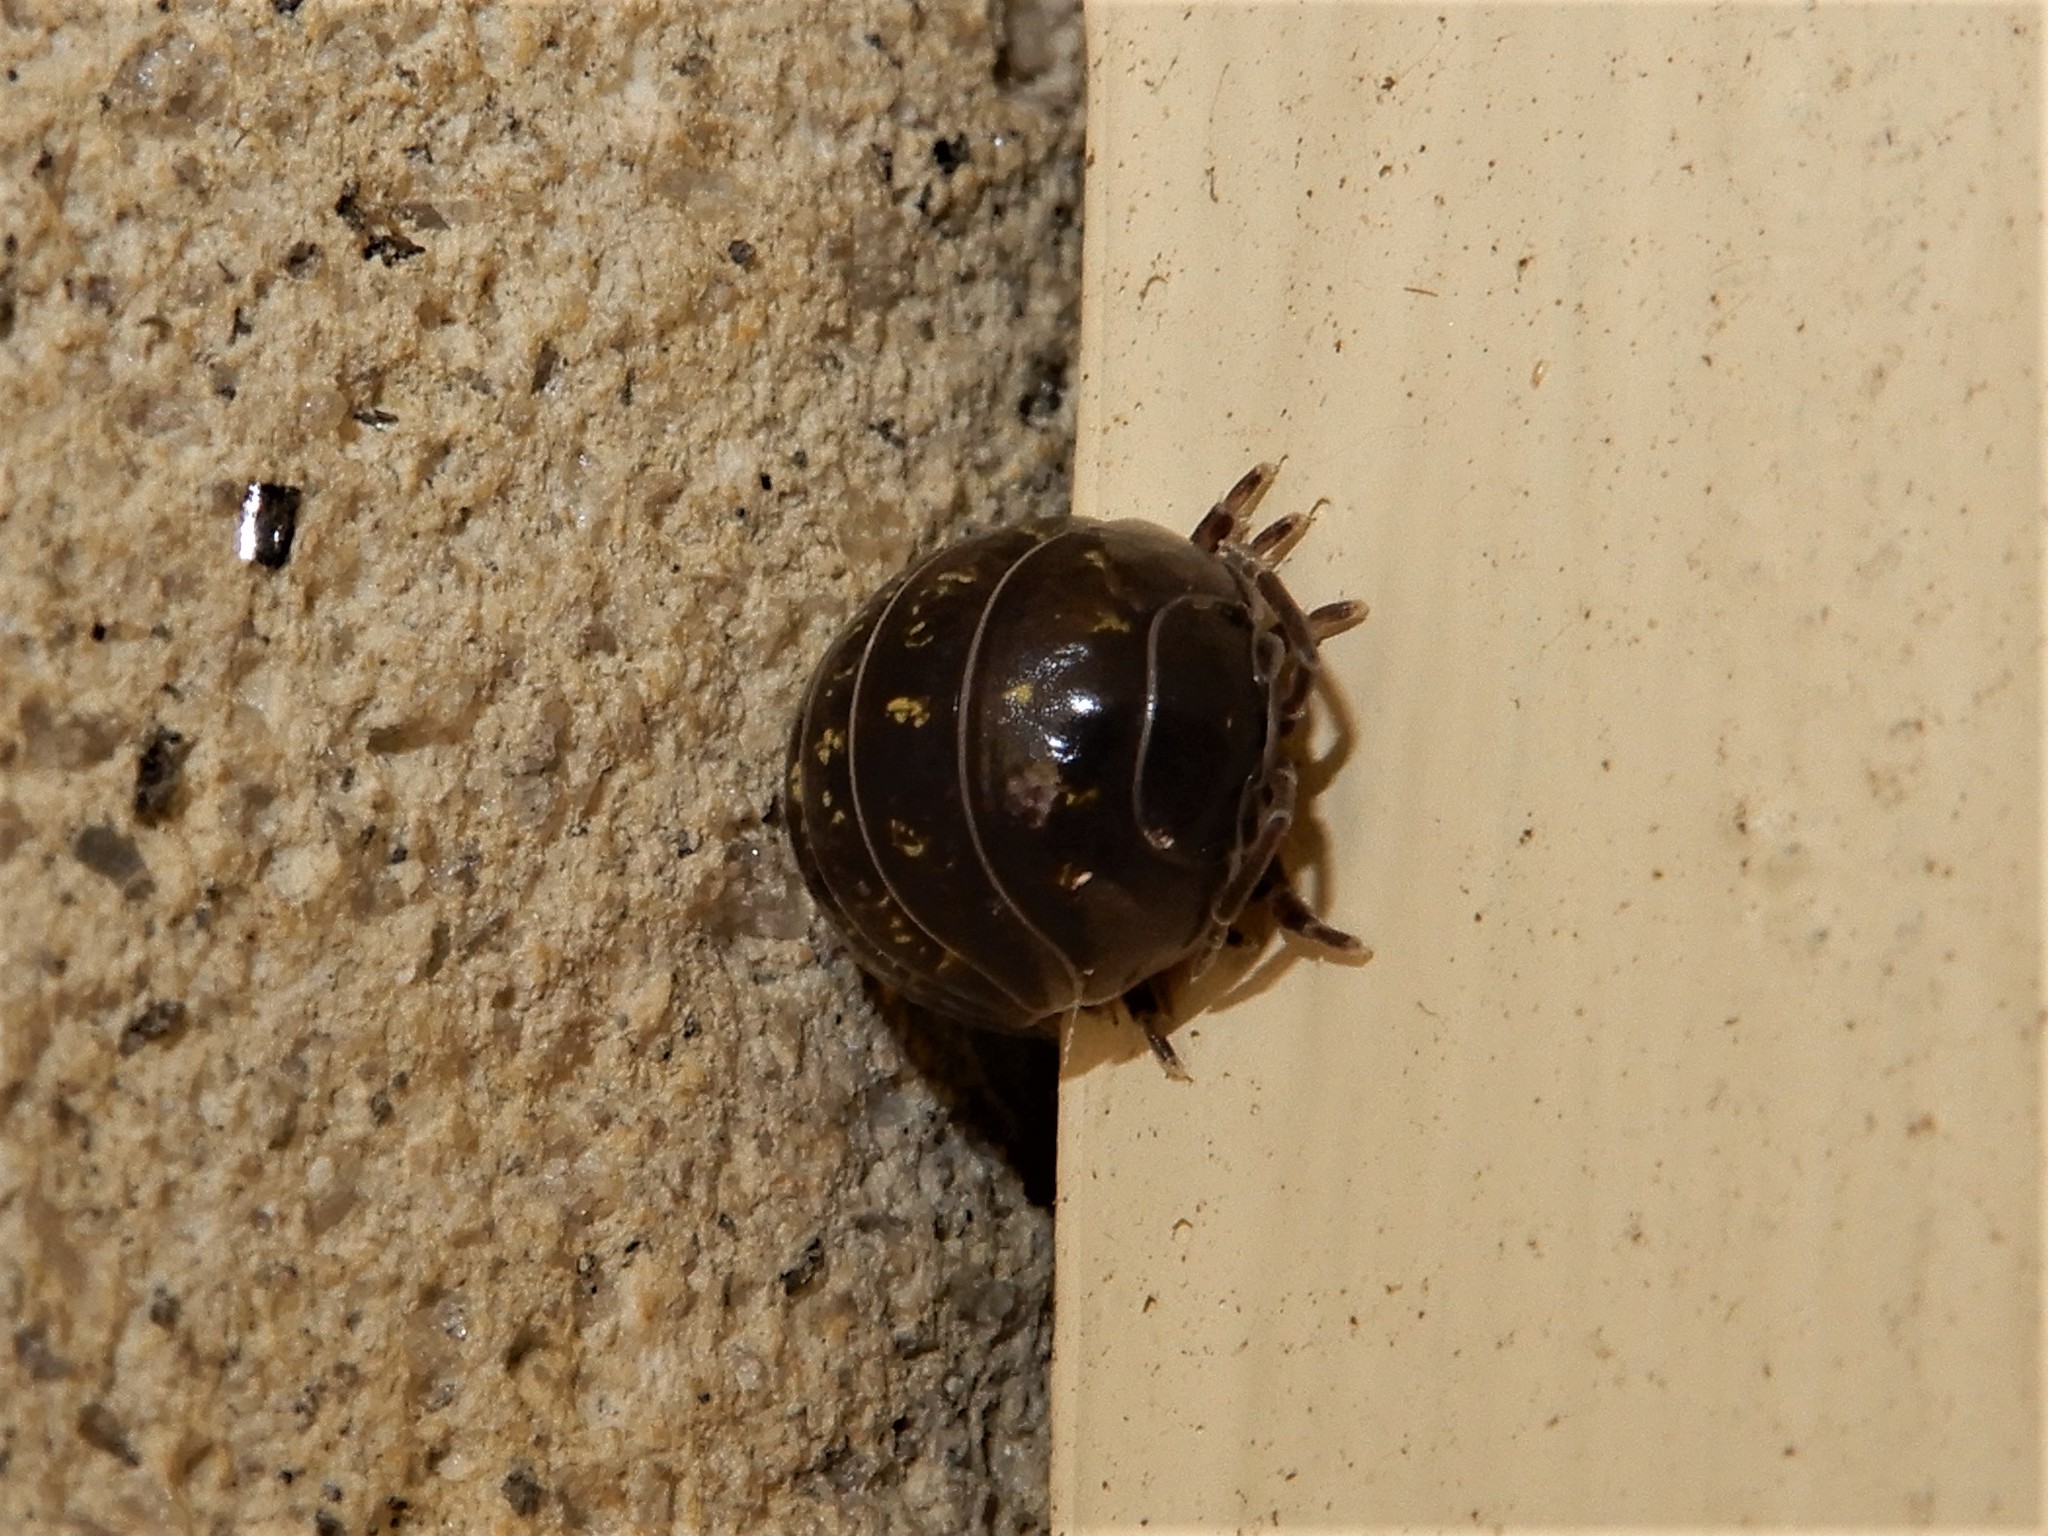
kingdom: Animalia
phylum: Arthropoda
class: Malacostraca
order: Isopoda
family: Armadillidiidae
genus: Armadillidium
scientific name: Armadillidium vulgare
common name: Common pill woodlouse
